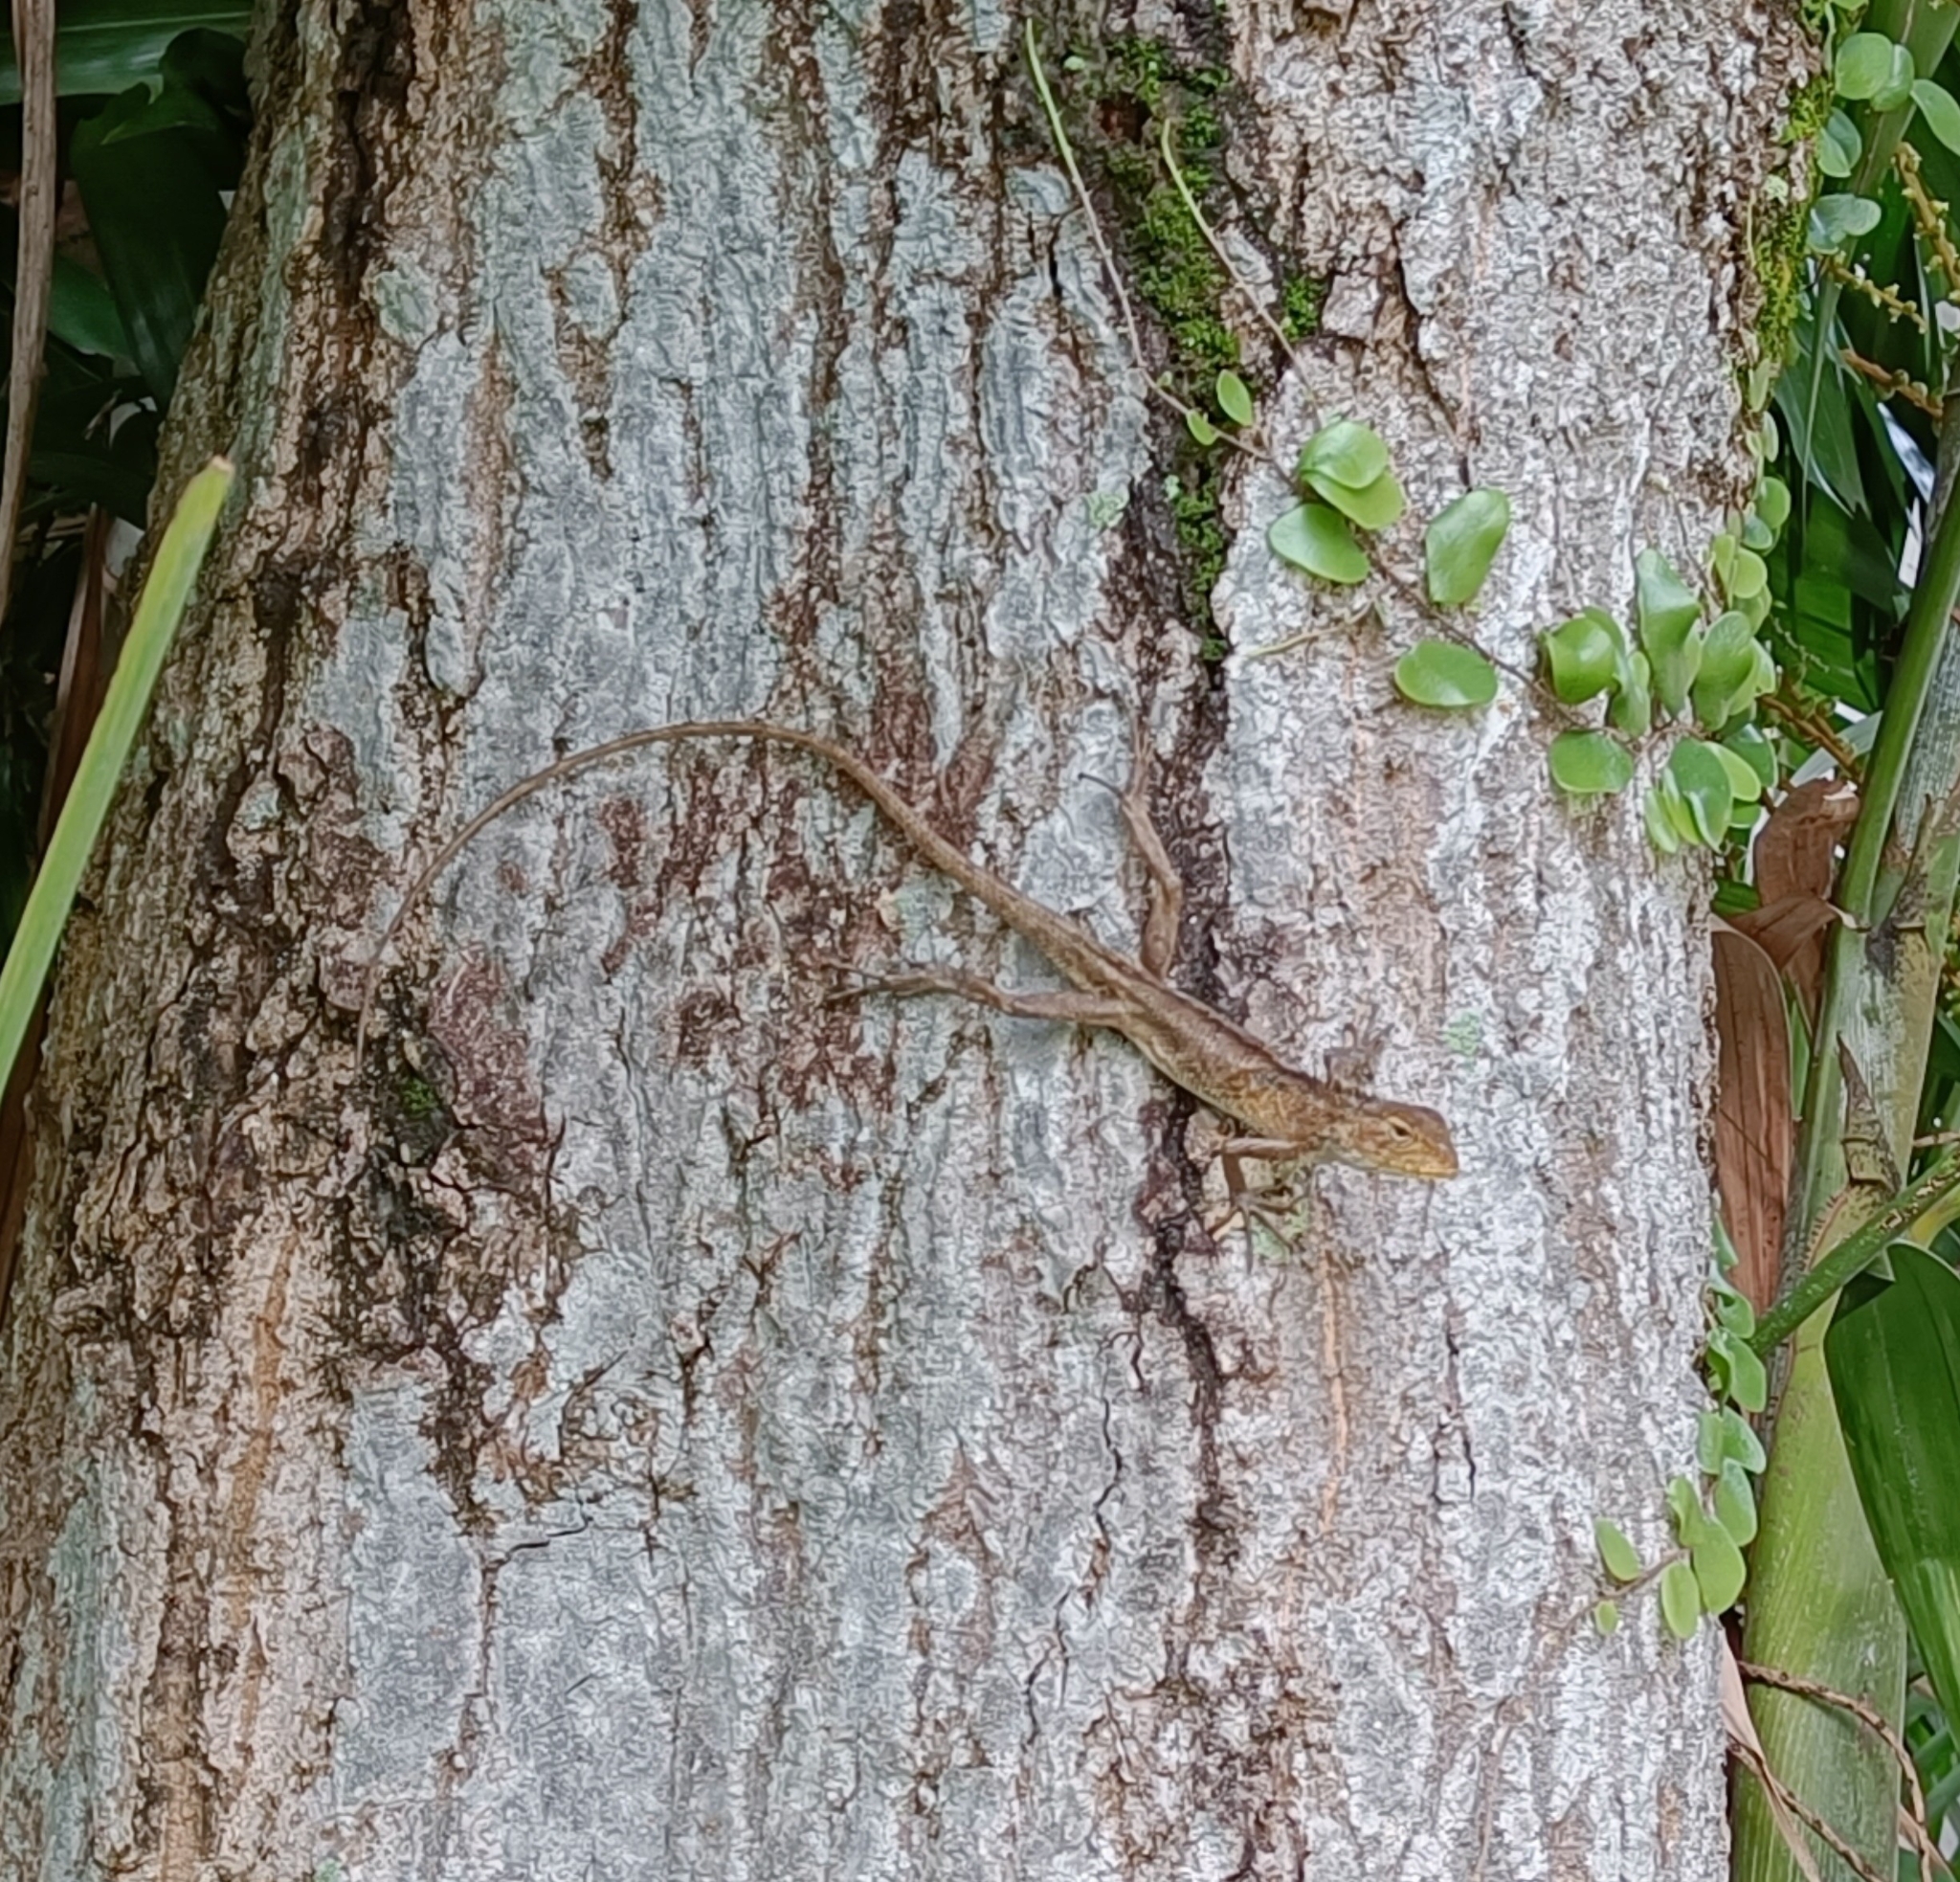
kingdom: Animalia
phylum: Chordata
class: Squamata
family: Agamidae
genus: Calotes
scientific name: Calotes versicolor
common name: Oriental garden lizard
